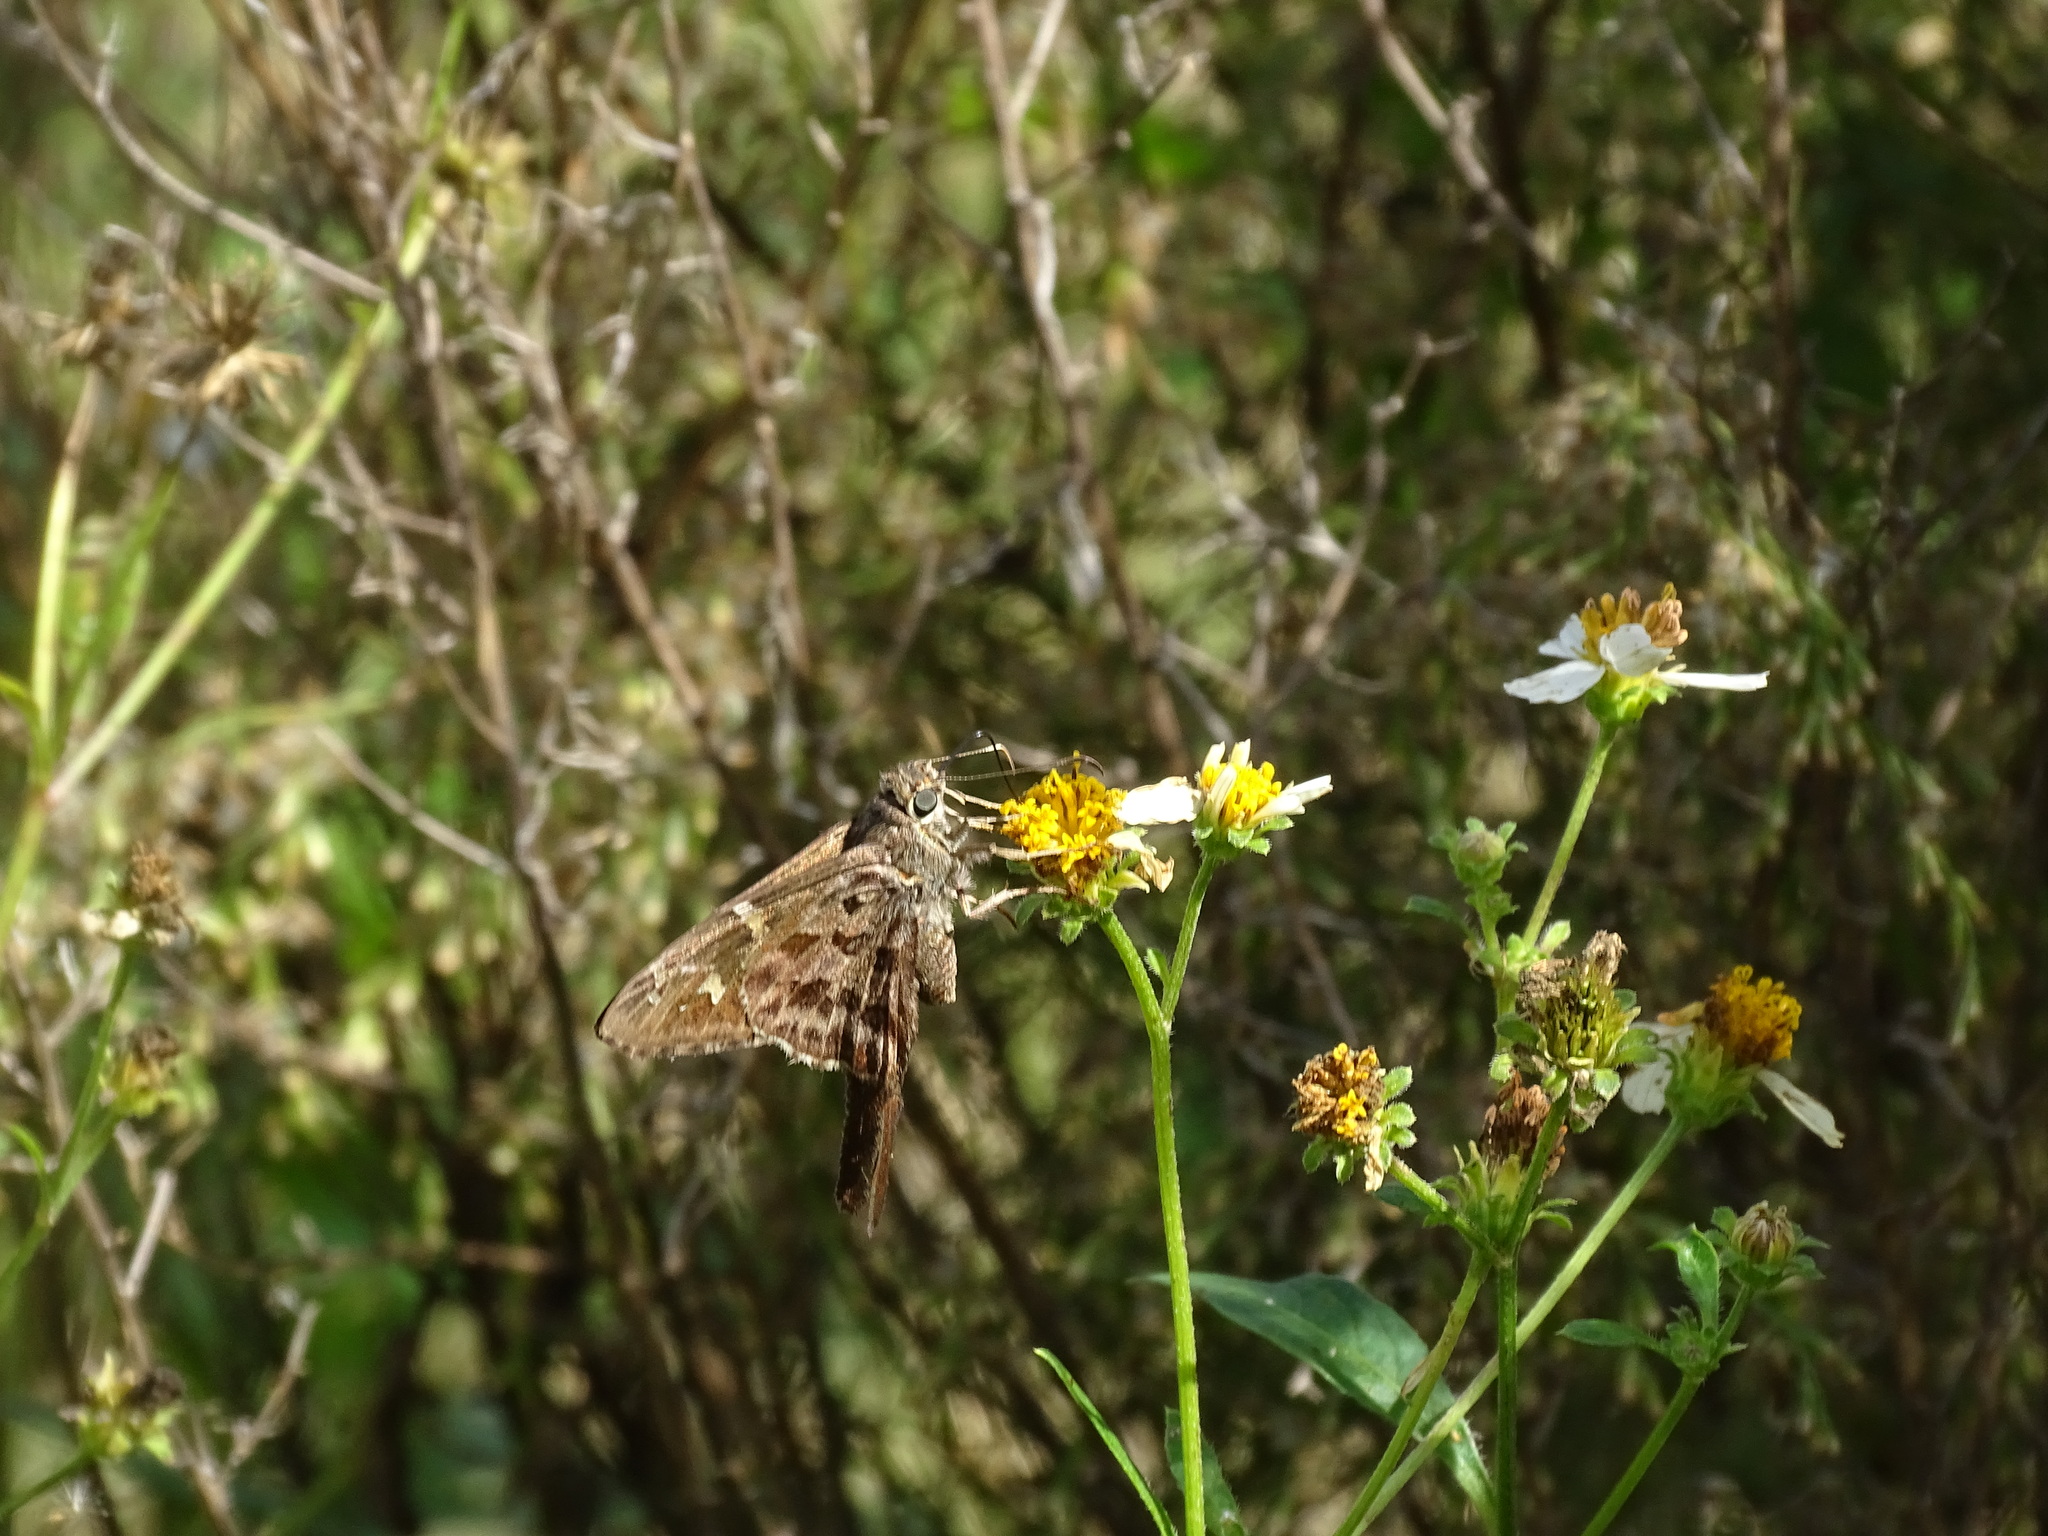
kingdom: Animalia
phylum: Arthropoda
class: Insecta
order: Lepidoptera
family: Hesperiidae
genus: Thorybes
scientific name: Thorybes
